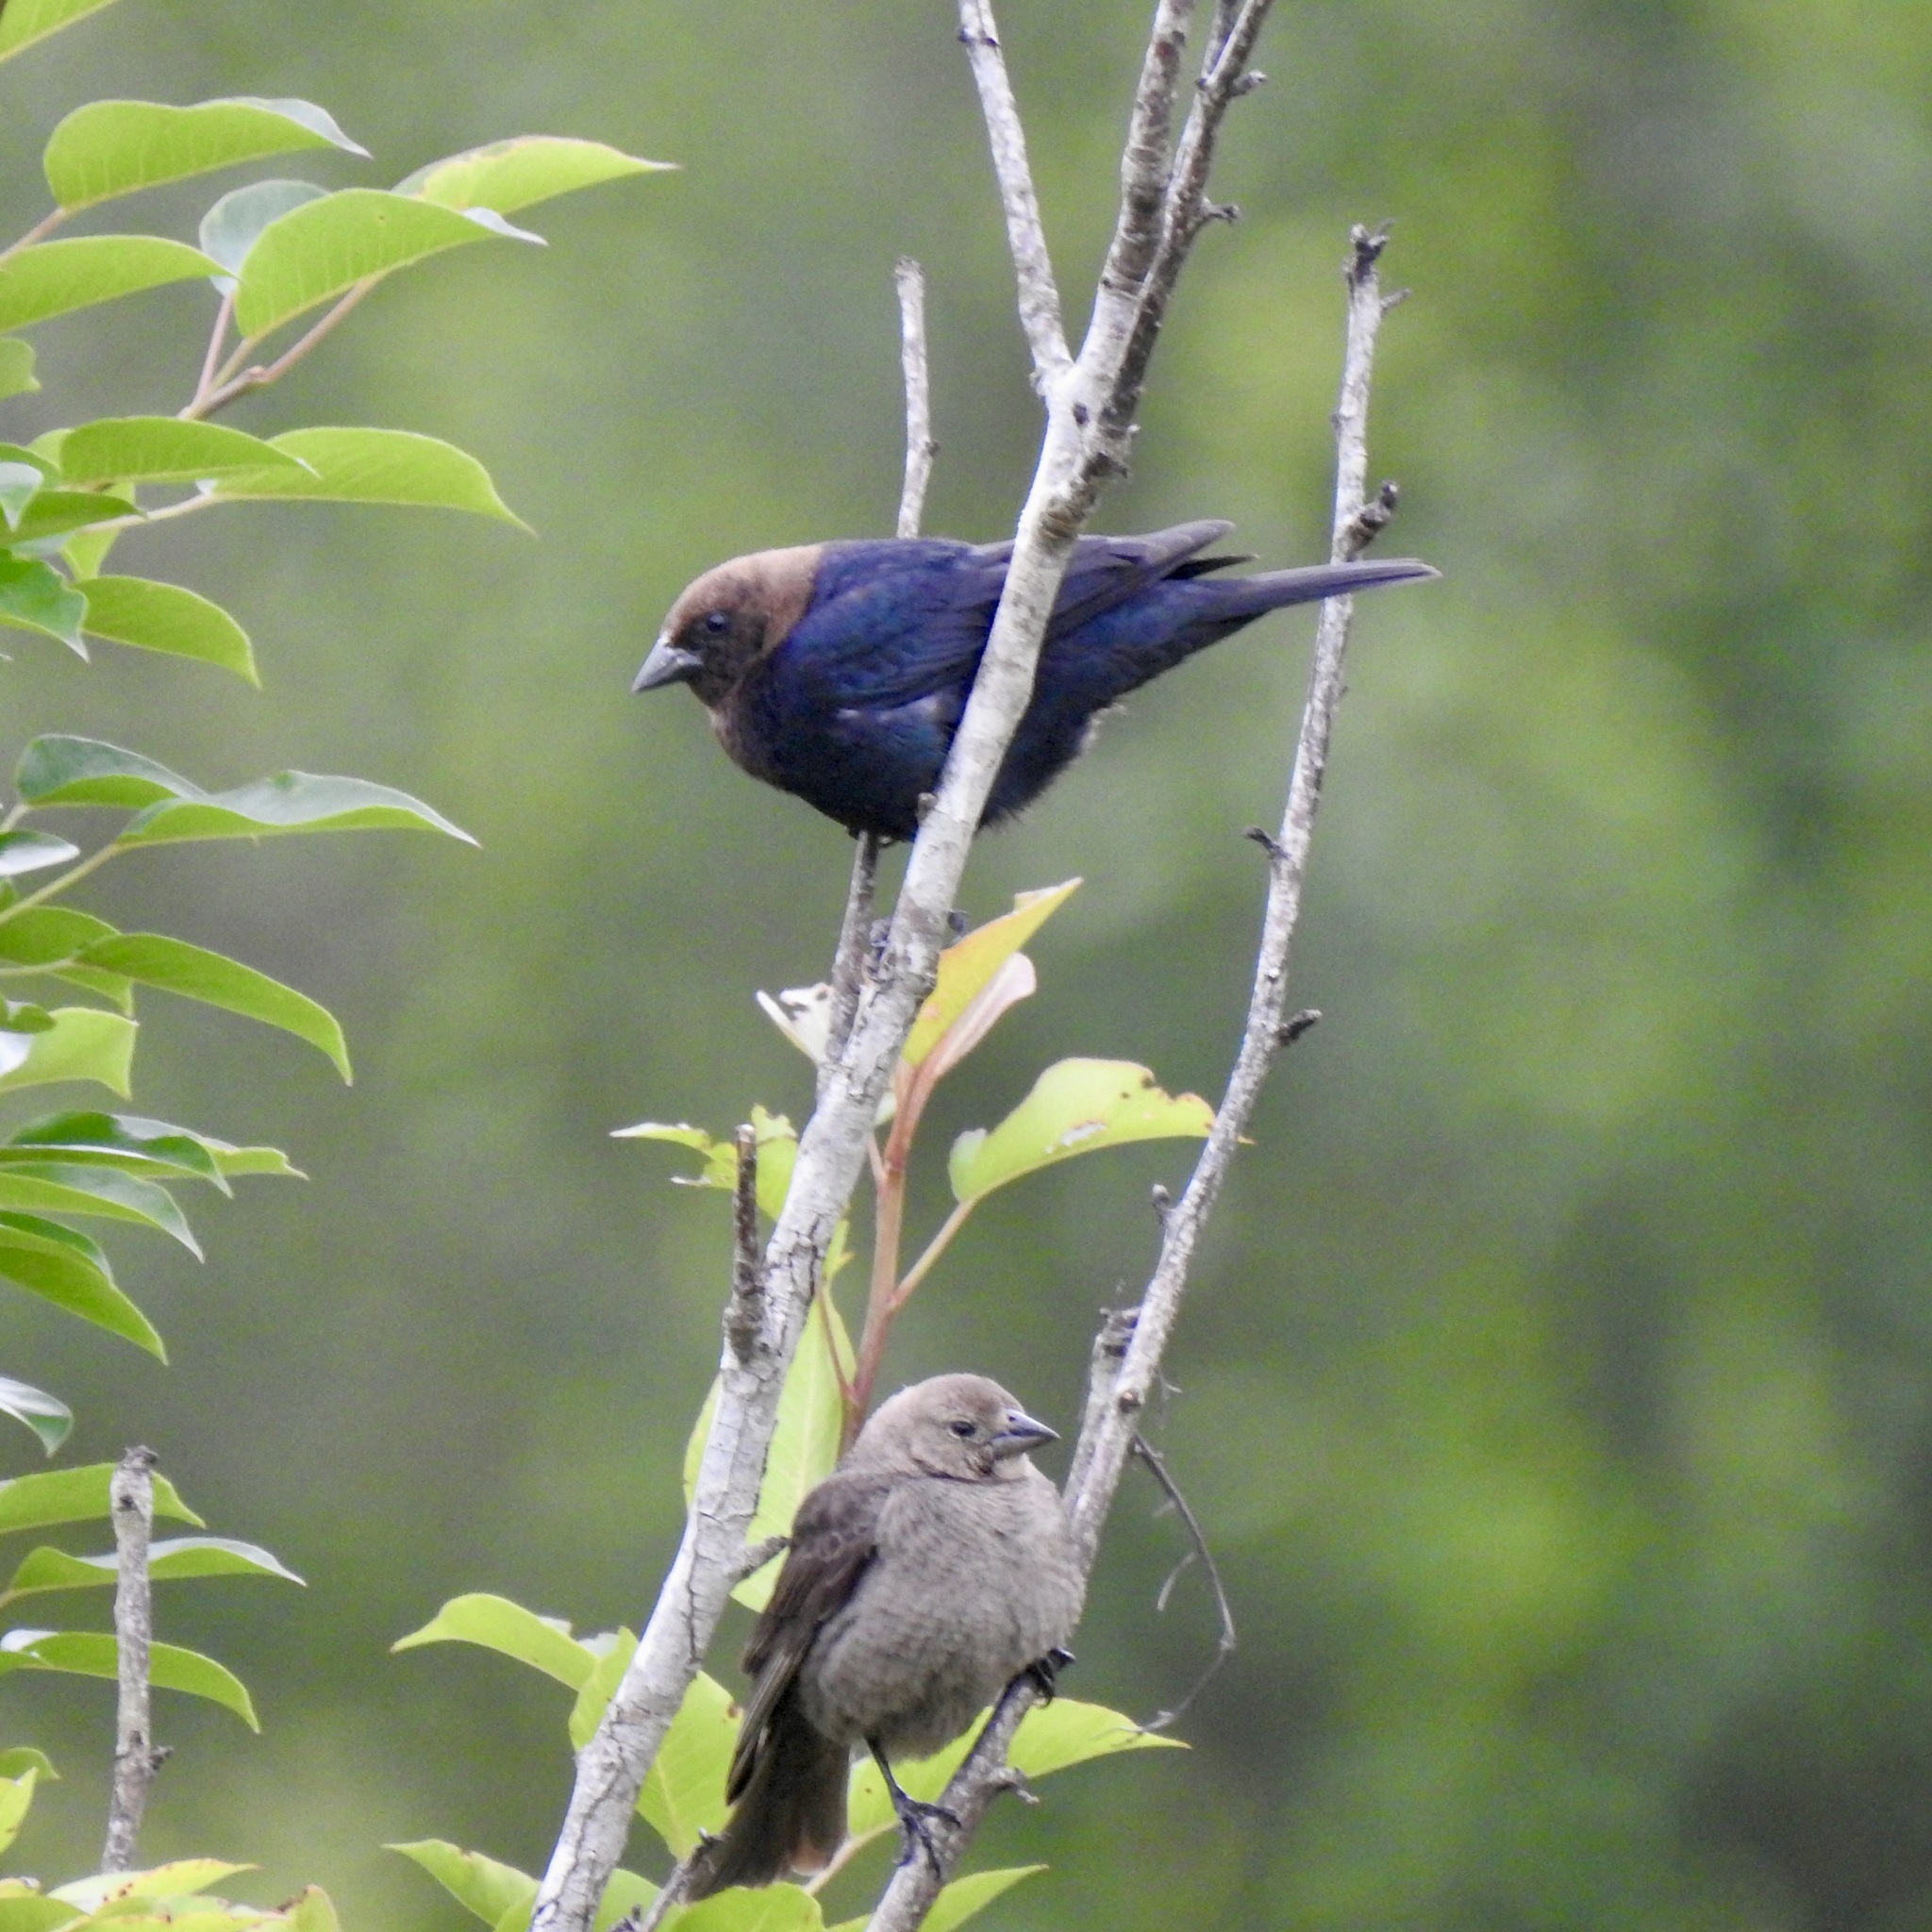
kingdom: Animalia
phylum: Chordata
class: Aves
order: Passeriformes
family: Icteridae
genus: Molothrus
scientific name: Molothrus ater
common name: Brown-headed cowbird
